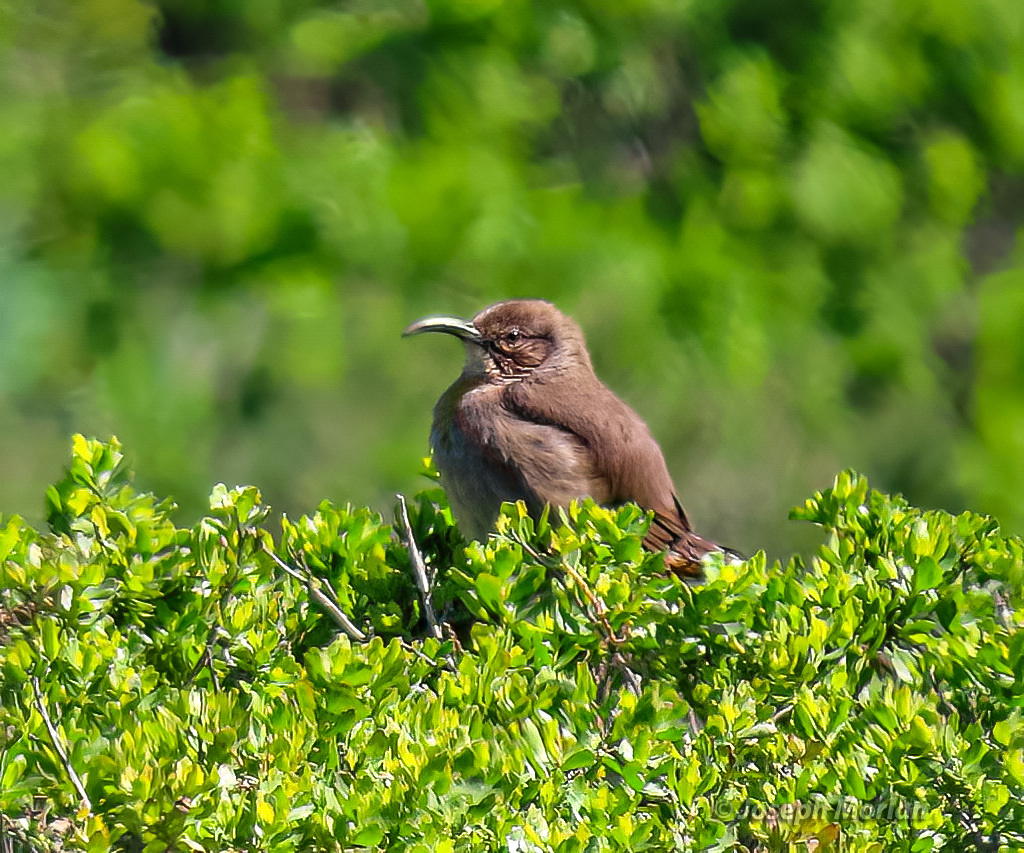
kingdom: Animalia
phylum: Chordata
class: Aves
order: Passeriformes
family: Mimidae
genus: Toxostoma
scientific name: Toxostoma redivivum
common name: California thrasher
